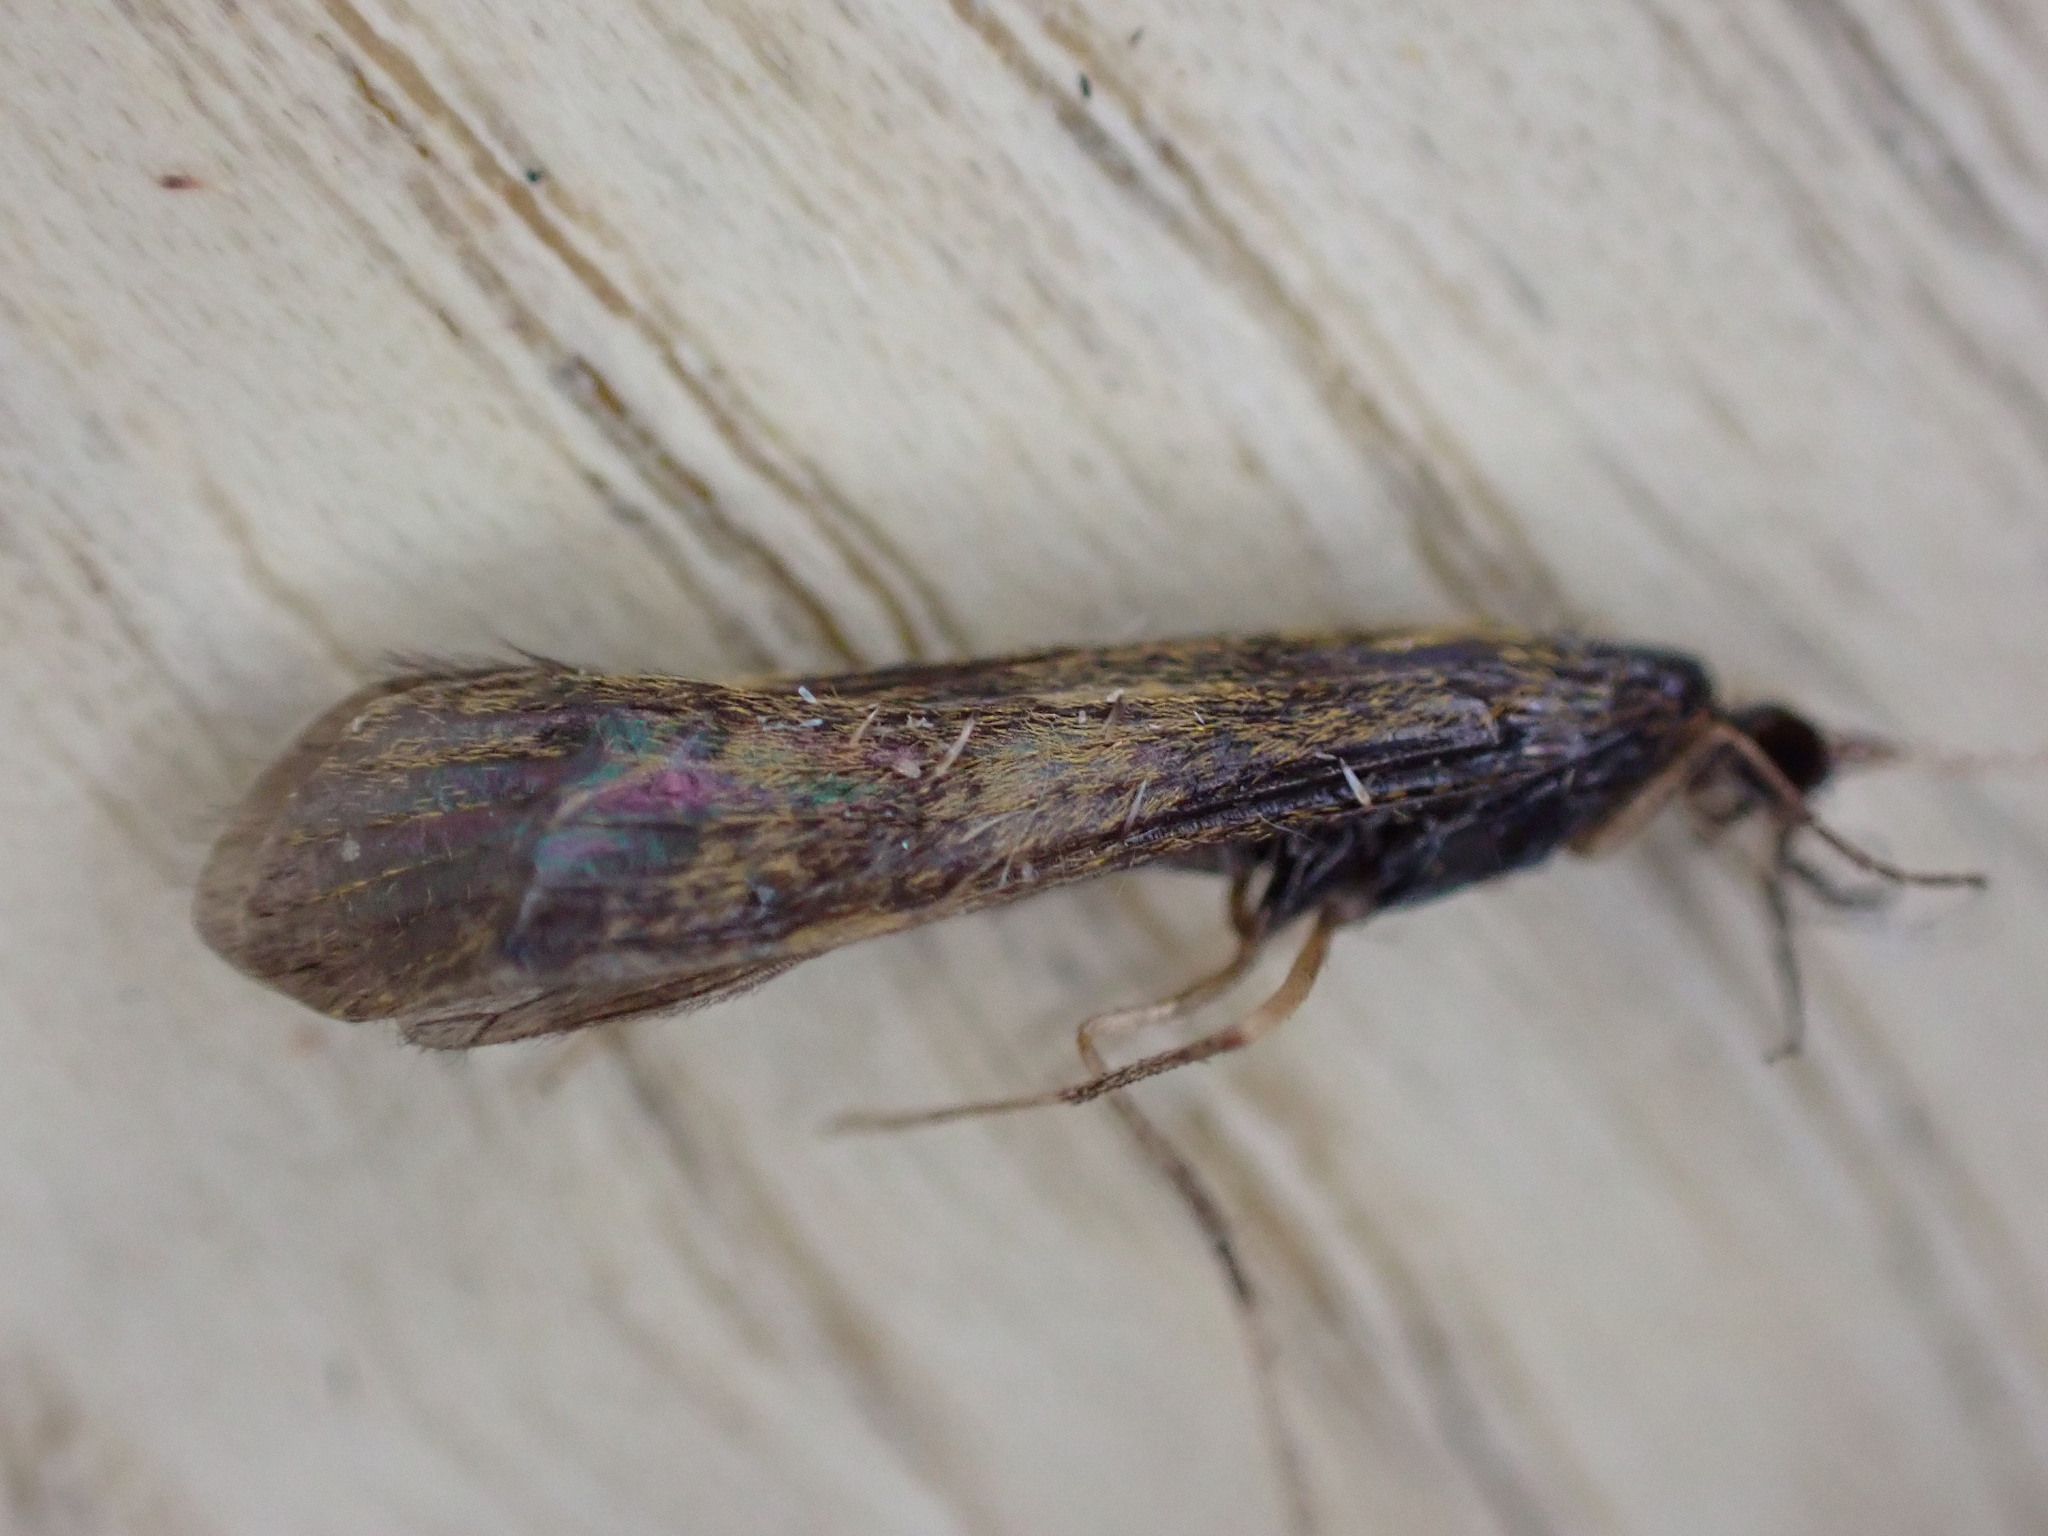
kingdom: Animalia
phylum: Arthropoda
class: Insecta
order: Trichoptera
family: Leptoceridae
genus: Mystacides
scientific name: Mystacides longicornis
